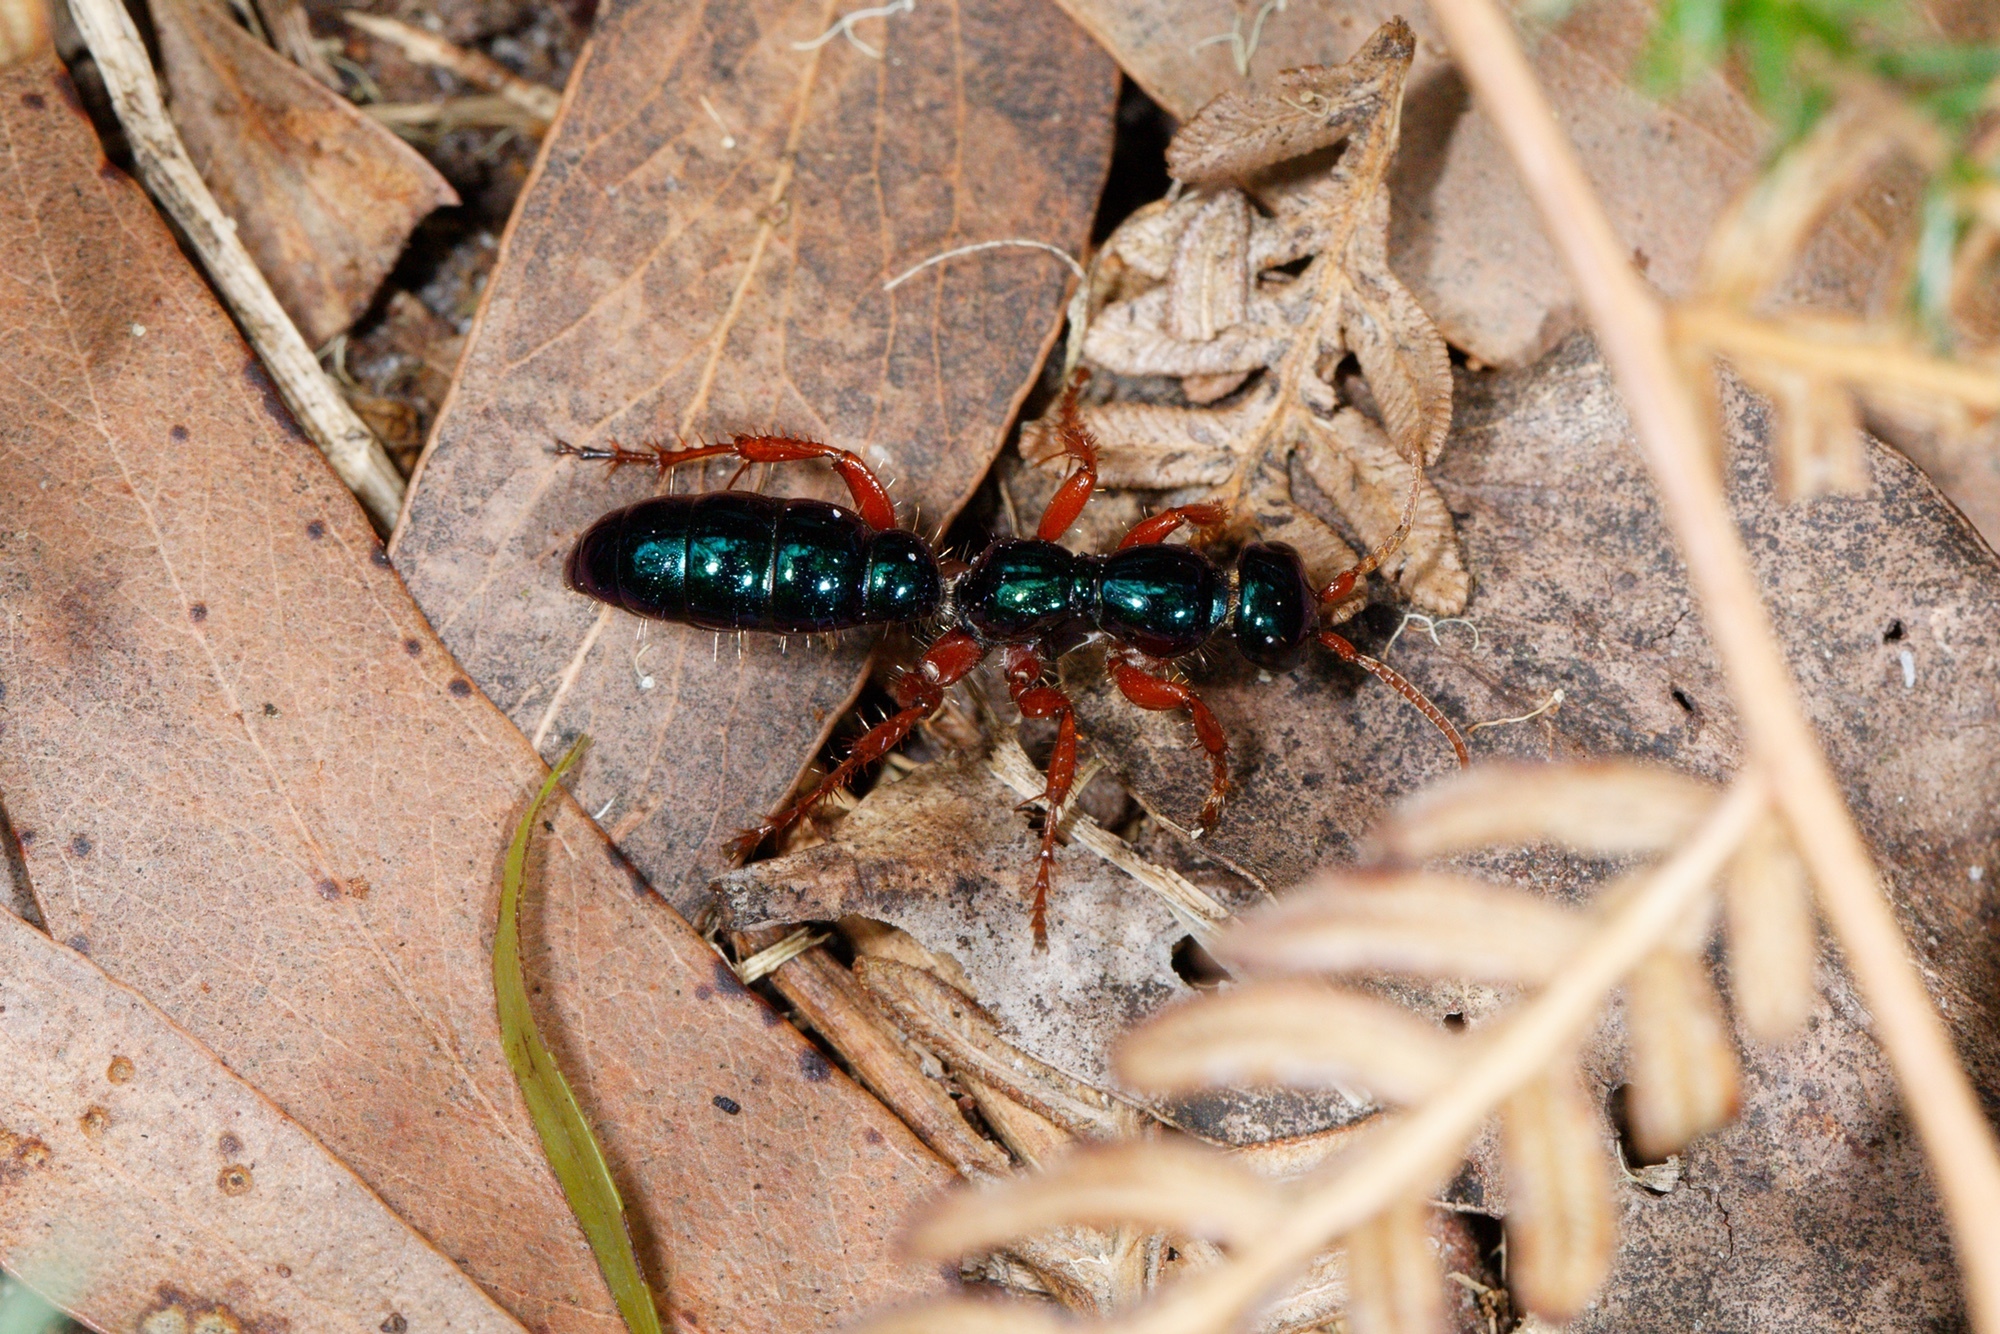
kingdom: Animalia
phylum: Arthropoda
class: Insecta
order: Hymenoptera
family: Tiphiidae
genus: Diamma
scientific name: Diamma
